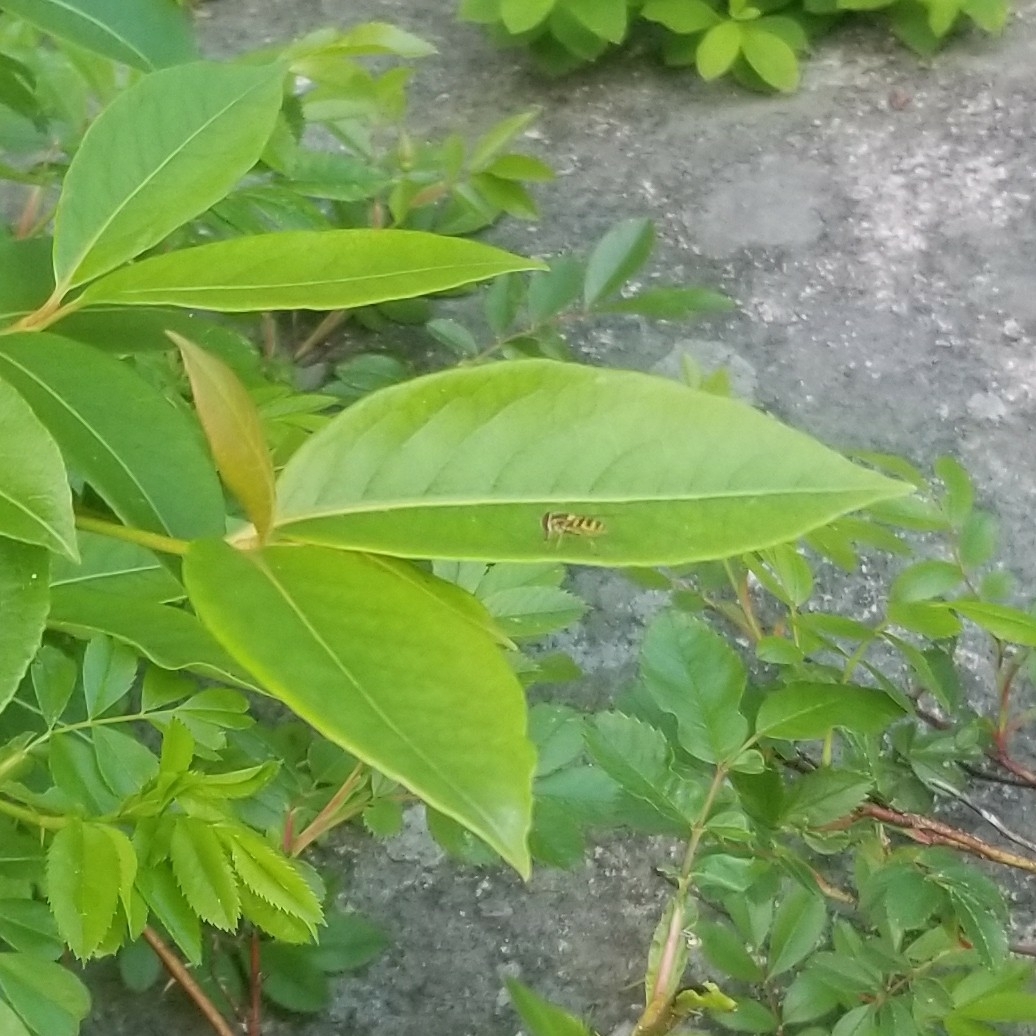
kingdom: Animalia
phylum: Arthropoda
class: Insecta
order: Diptera
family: Syrphidae
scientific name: Syrphidae
